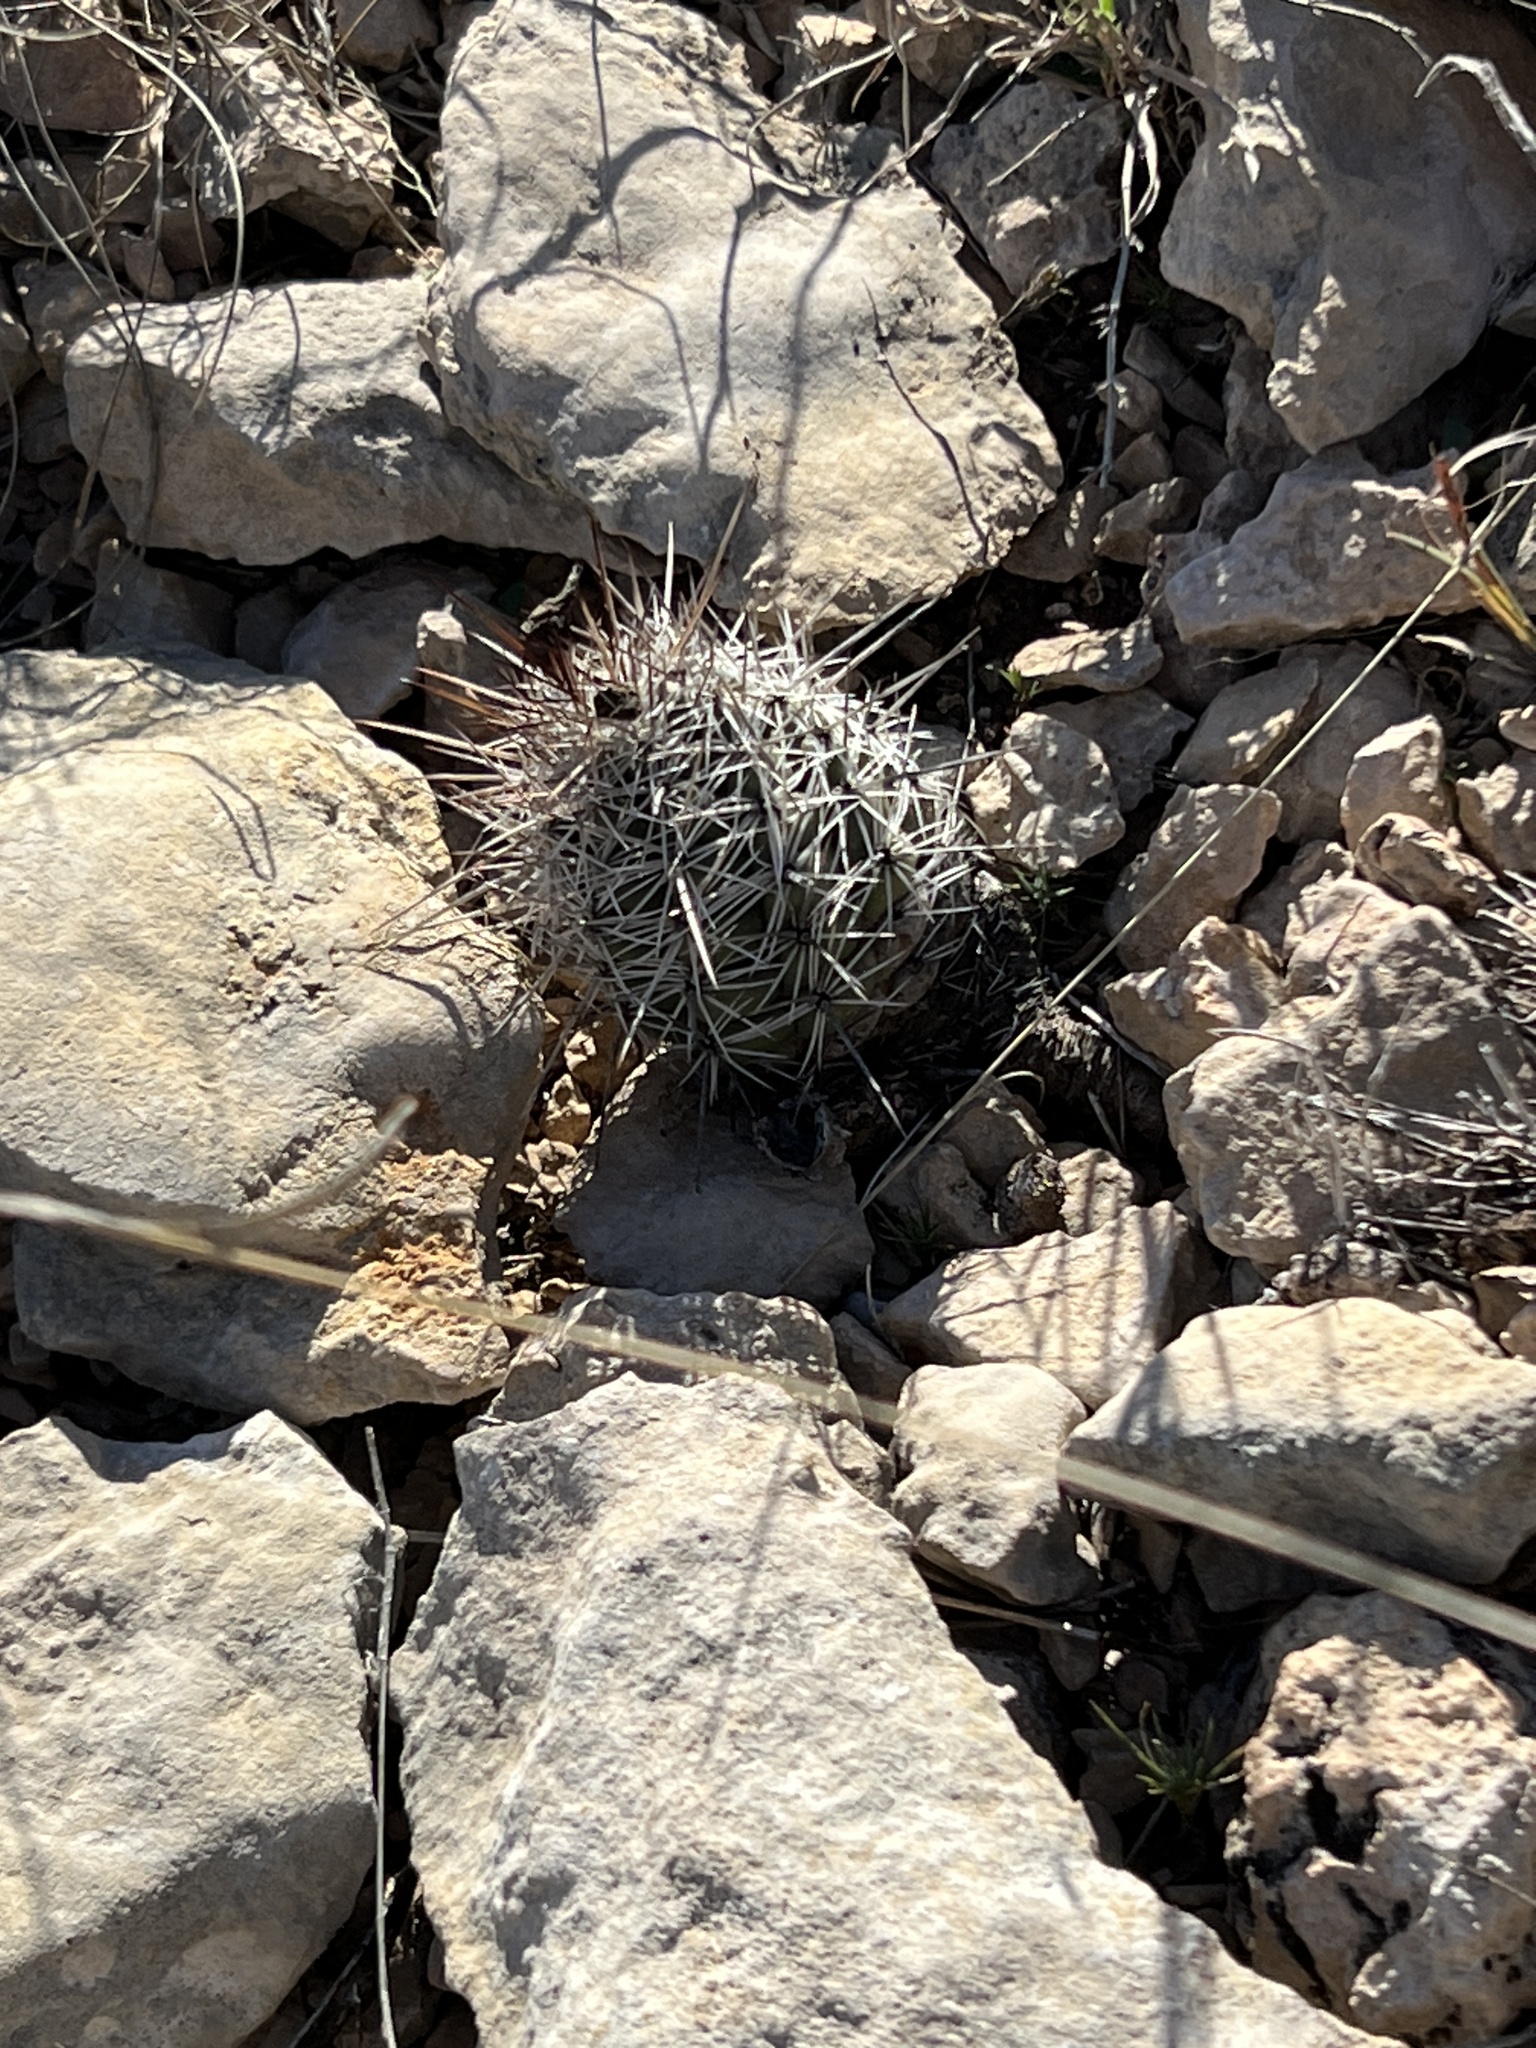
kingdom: Plantae
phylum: Tracheophyta
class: Magnoliopsida
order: Caryophyllales
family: Cactaceae
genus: Cochemiea
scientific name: Cochemiea conoidea
